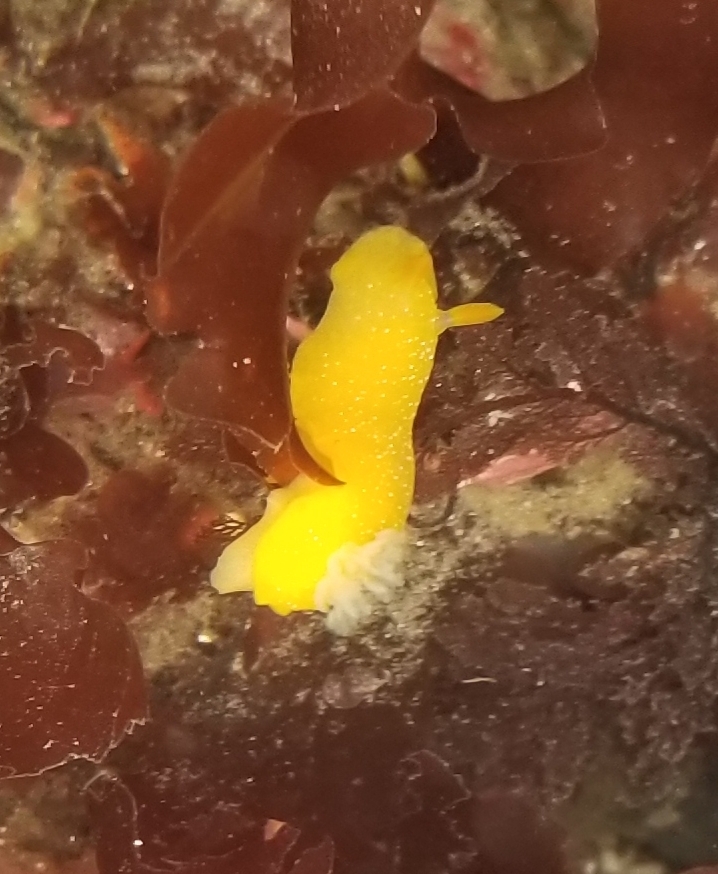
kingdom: Animalia
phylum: Mollusca
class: Gastropoda
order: Nudibranchia
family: Dendrodorididae
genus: Doriopsilla
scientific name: Doriopsilla fulva
